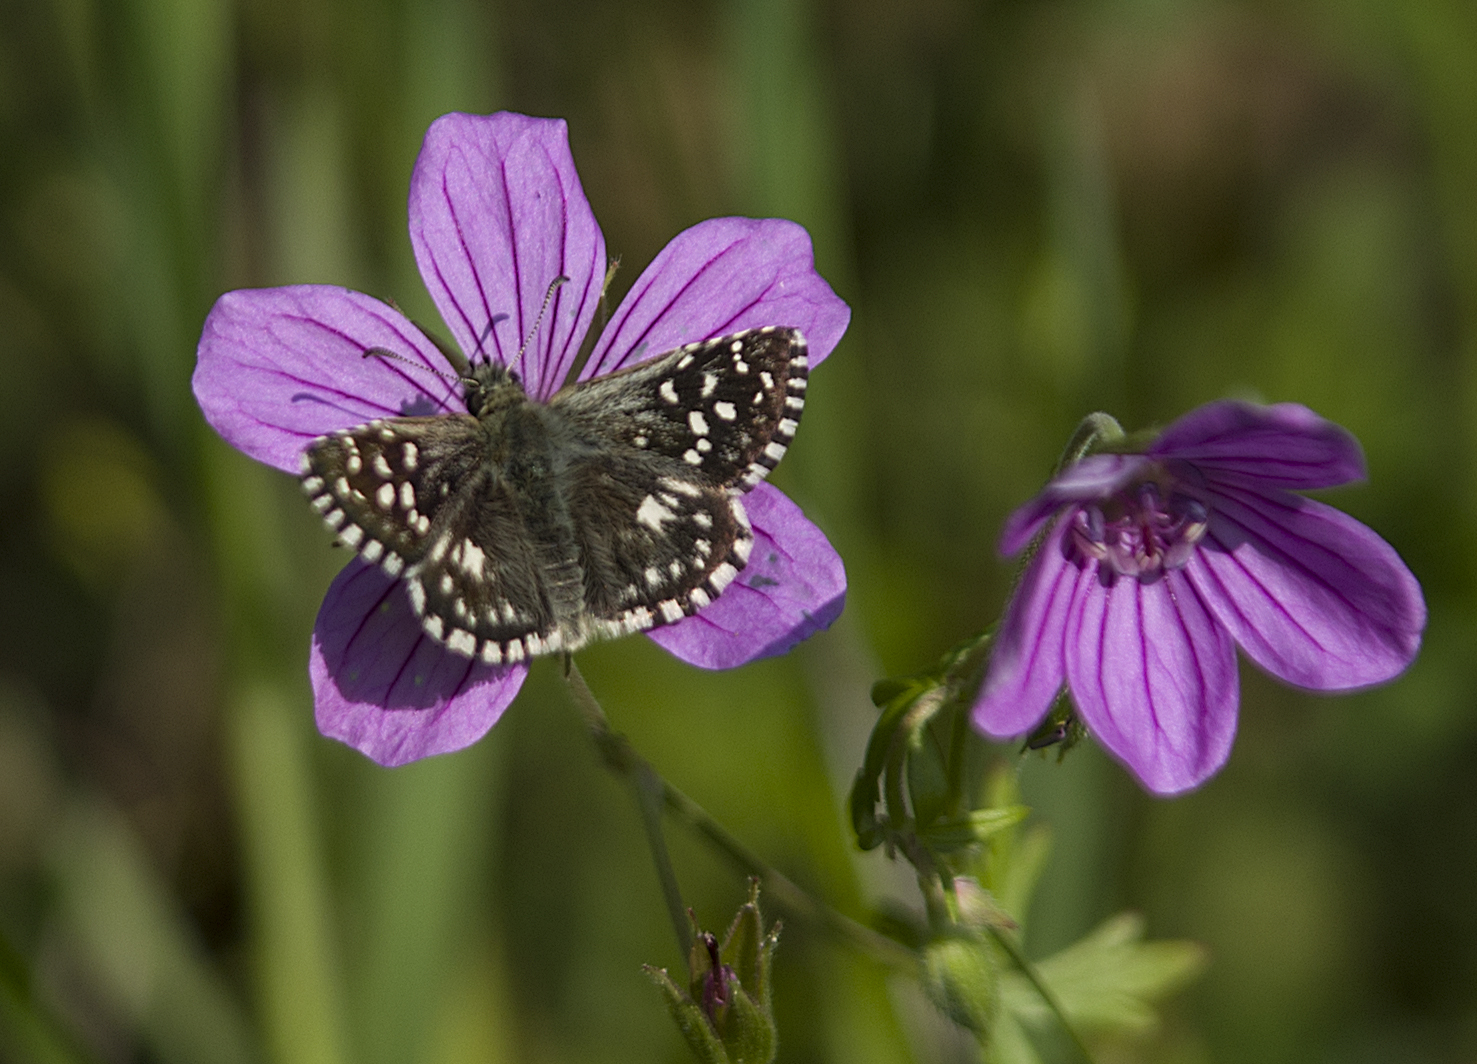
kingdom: Animalia
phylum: Arthropoda
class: Insecta
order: Lepidoptera
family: Hesperiidae
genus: Pyrgus
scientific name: Pyrgus malvae
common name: Grizzled skipper
